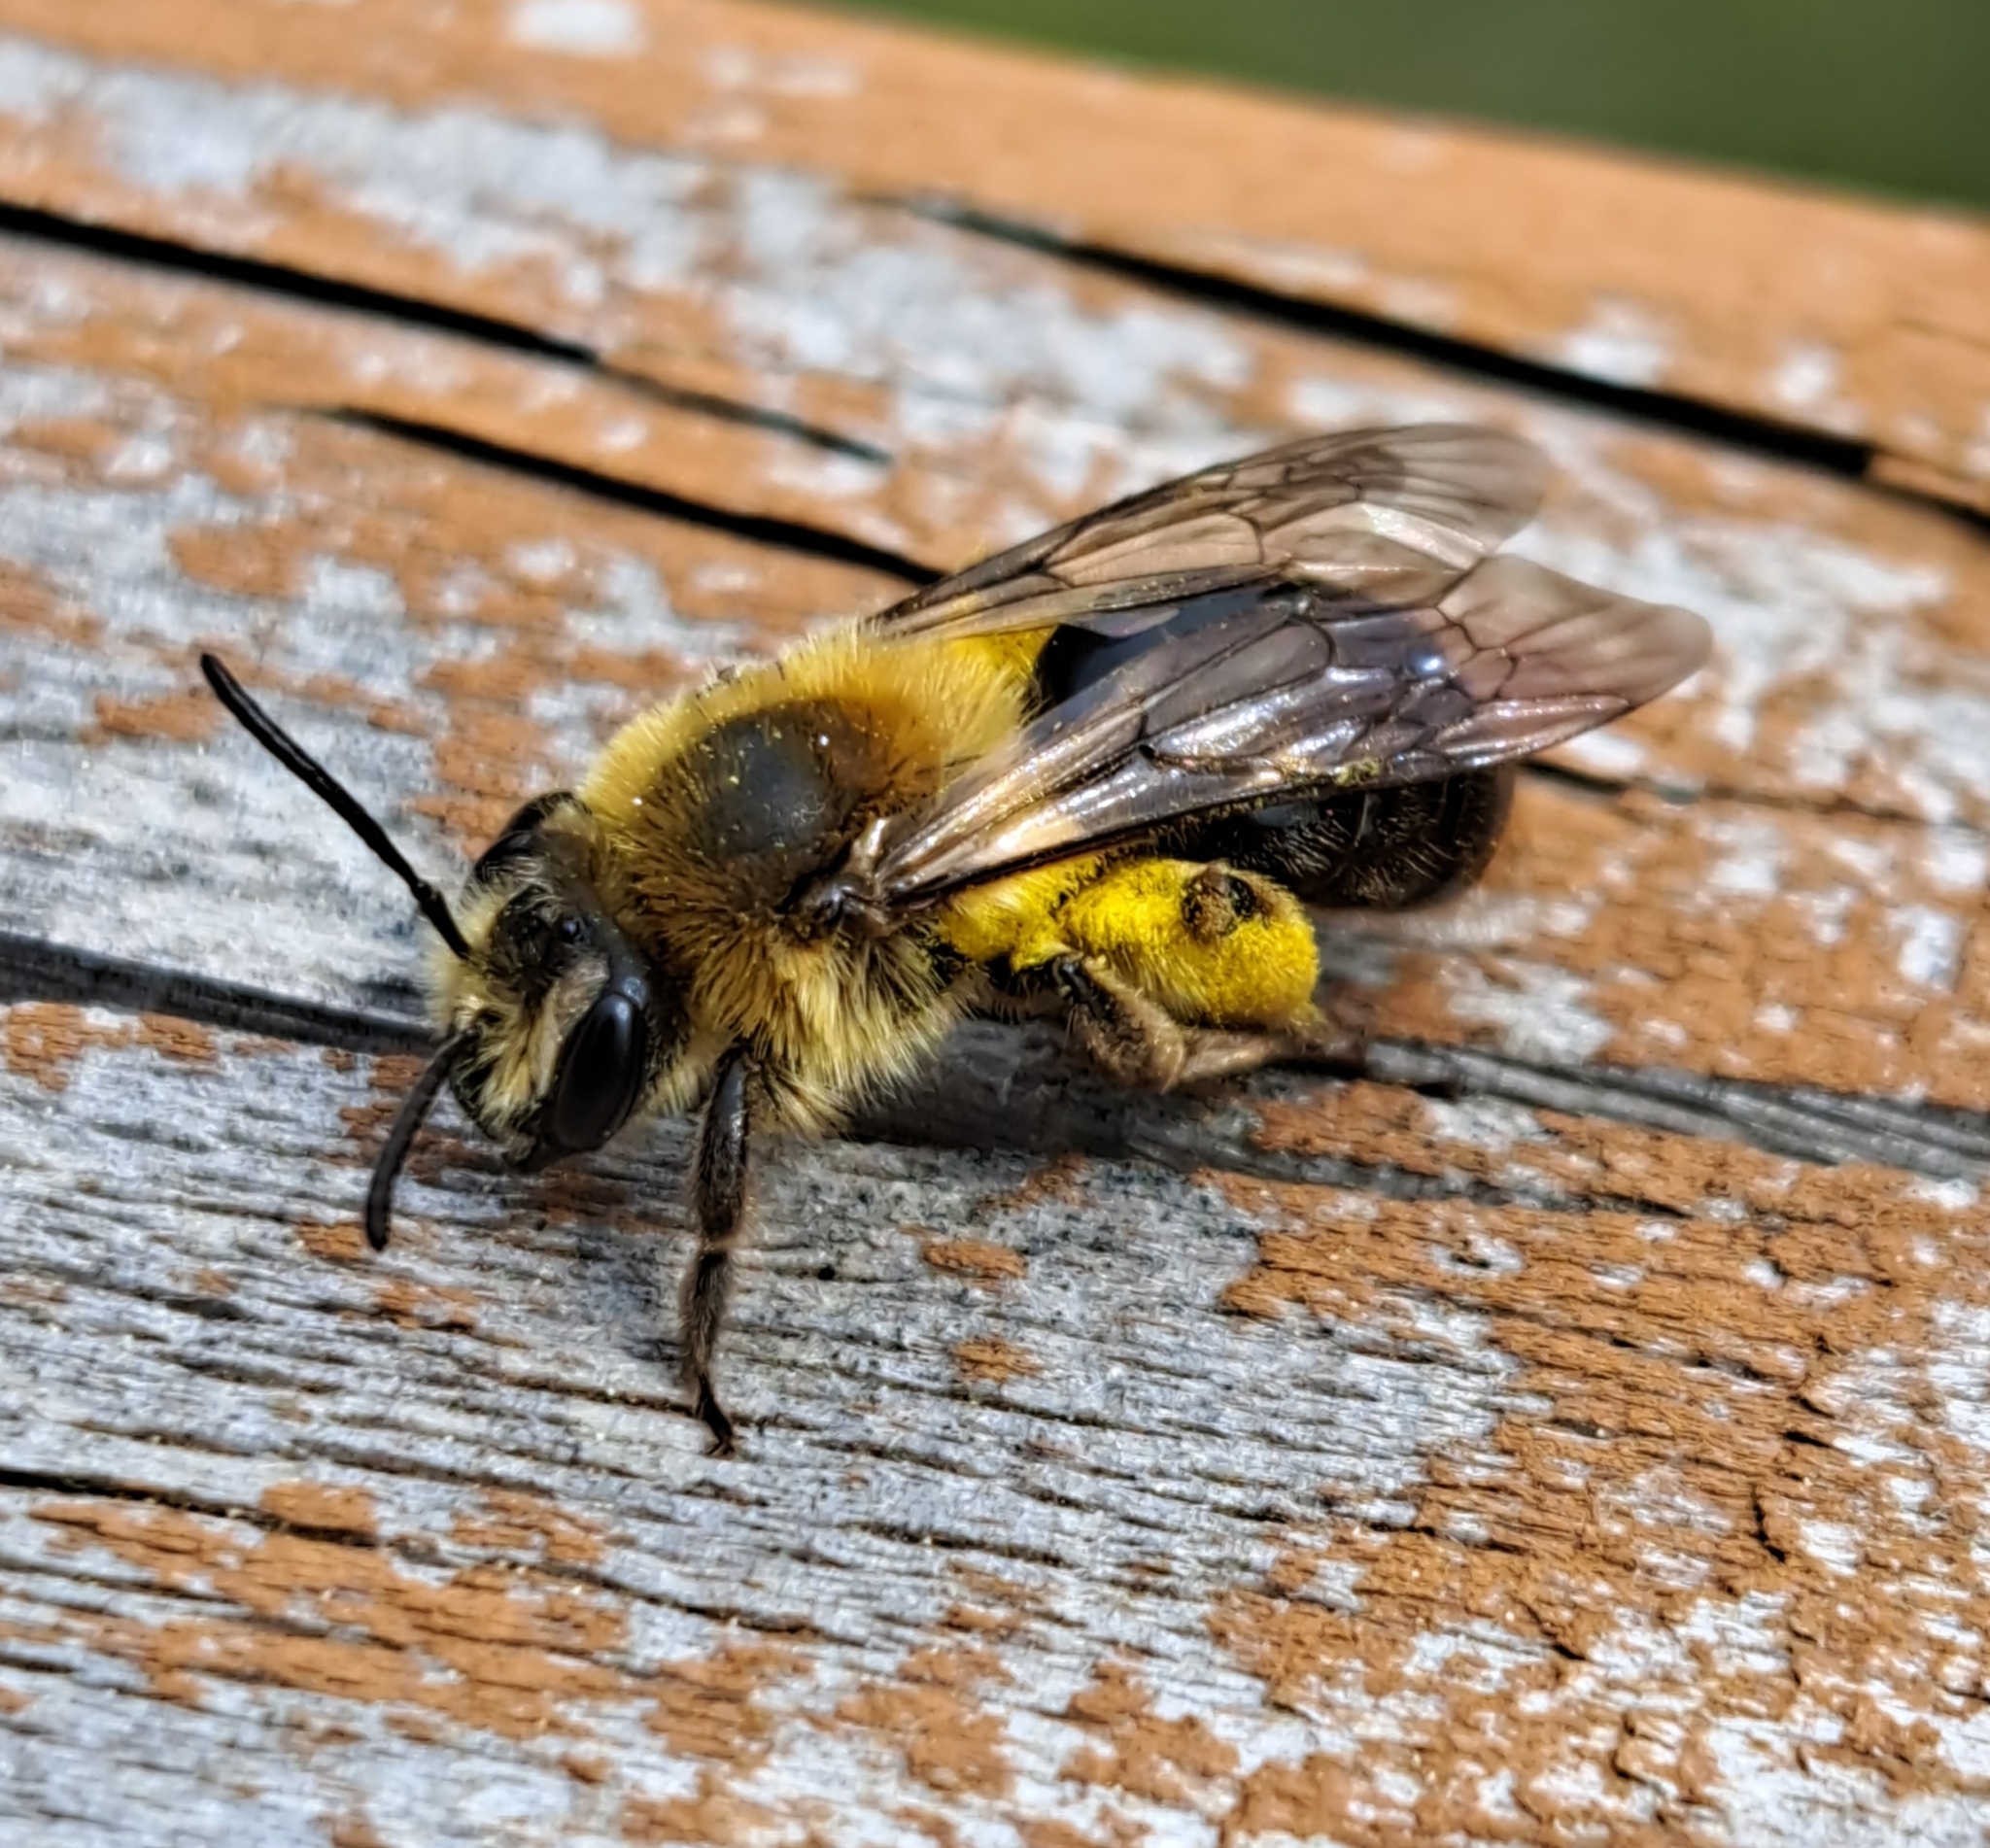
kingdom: Animalia
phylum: Arthropoda
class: Insecta
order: Hymenoptera
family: Andrenidae
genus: Andrena
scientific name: Andrena dunningi
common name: Dunning's miner
